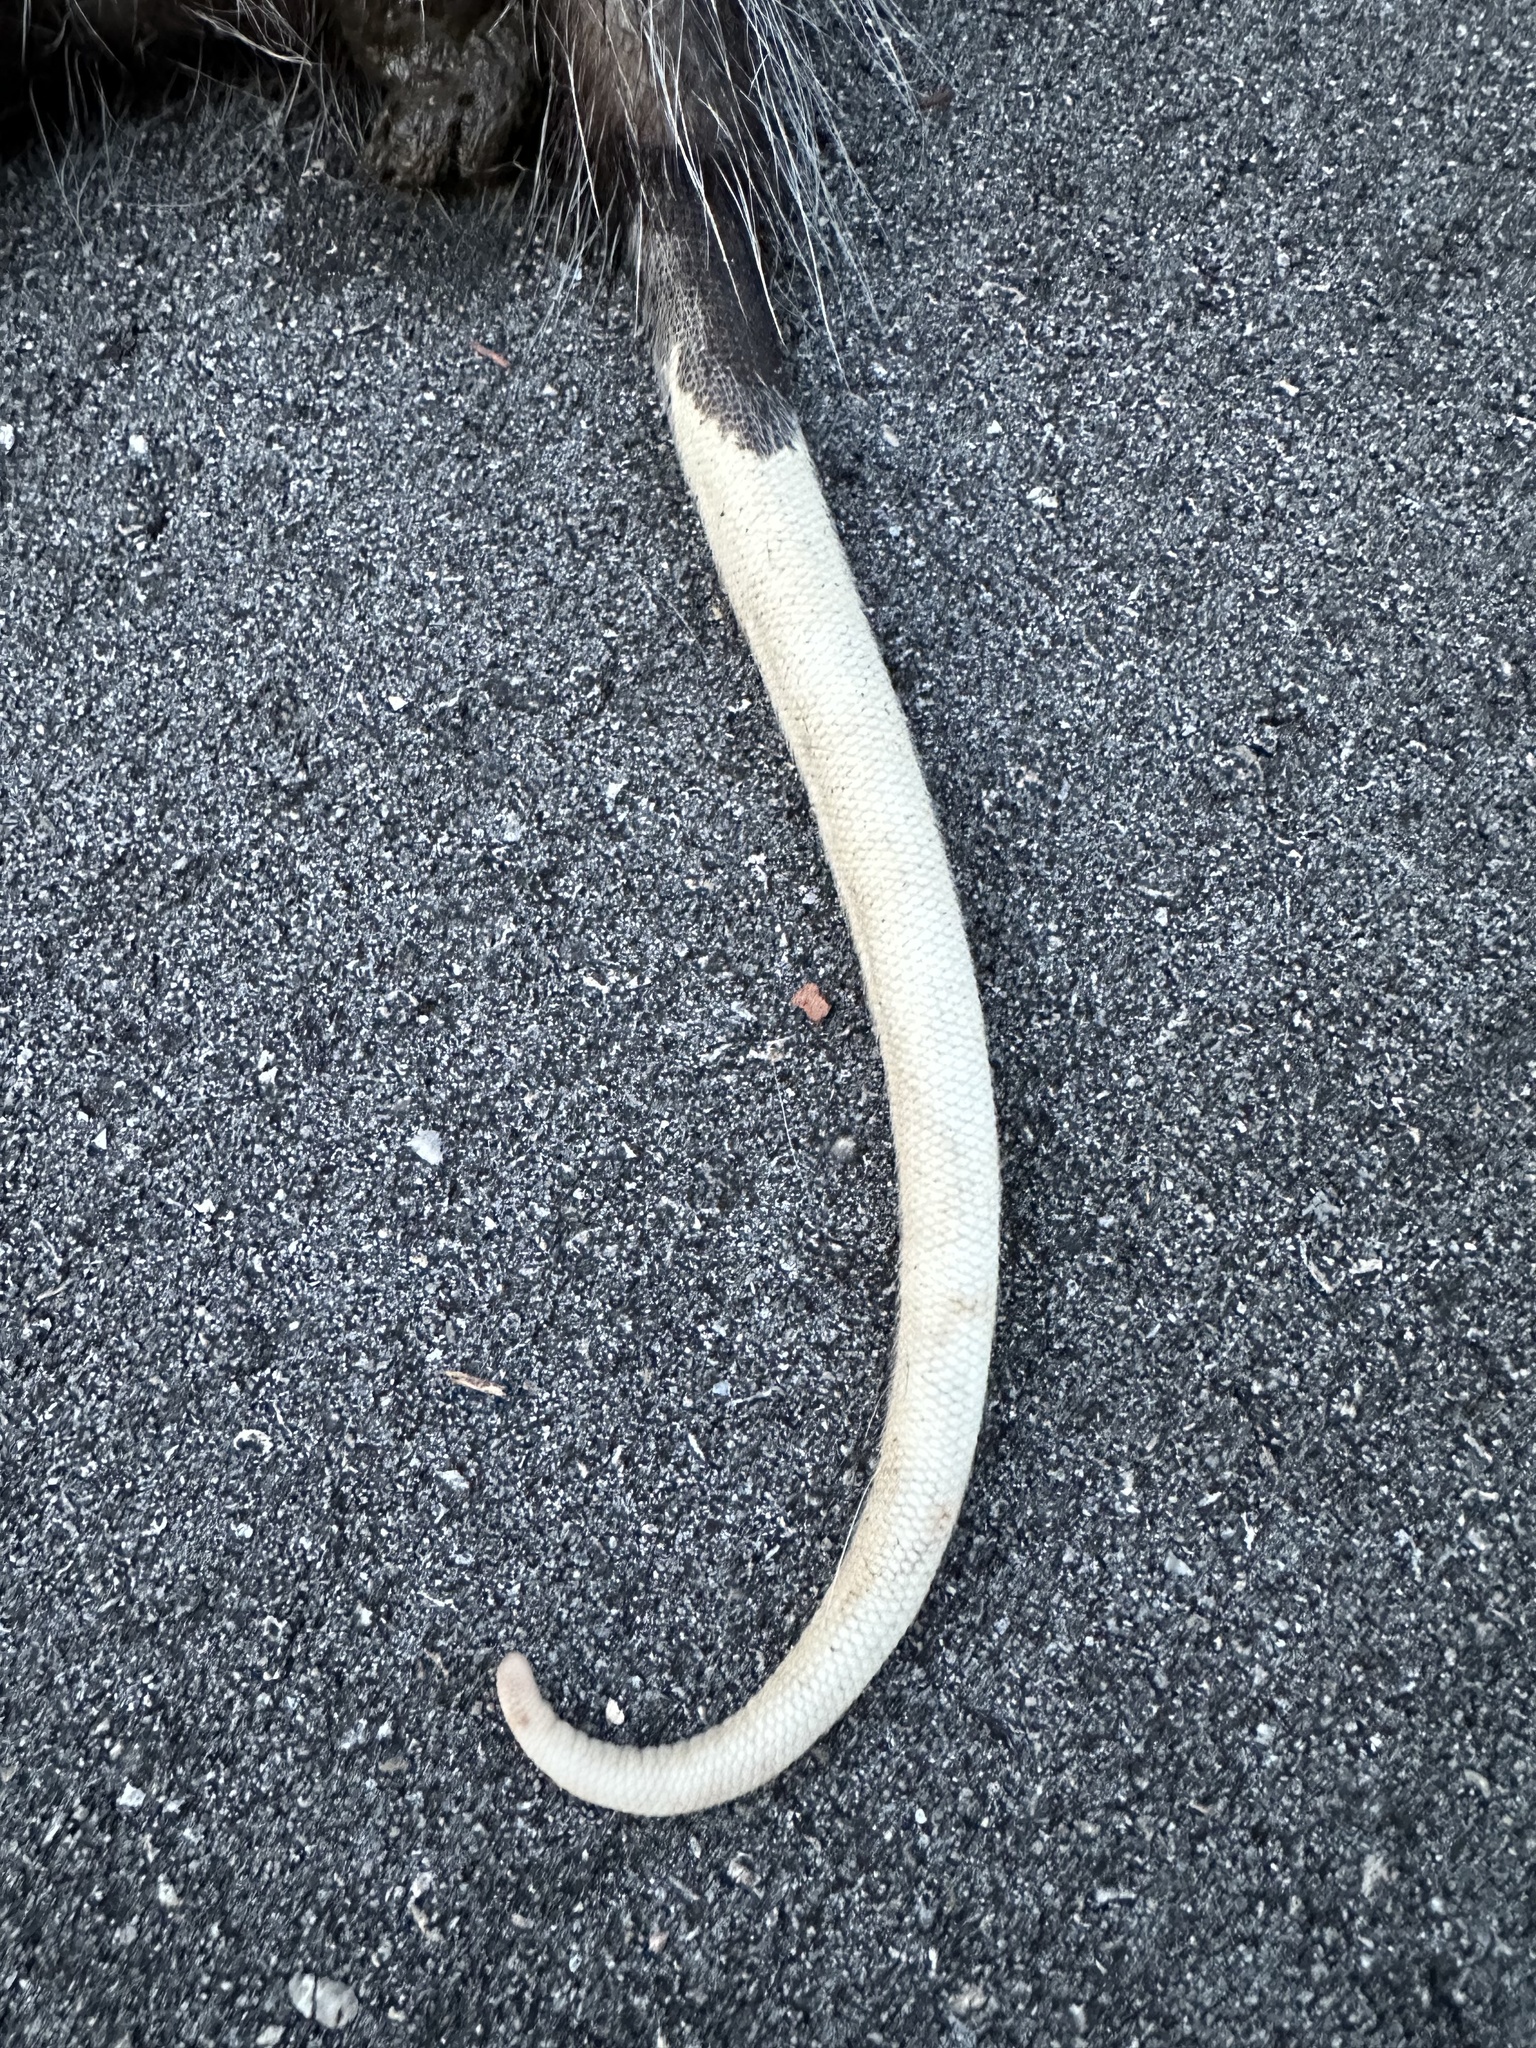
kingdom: Animalia
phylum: Chordata
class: Mammalia
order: Didelphimorphia
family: Didelphidae
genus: Didelphis
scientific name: Didelphis virginiana
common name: Virginia opossum
